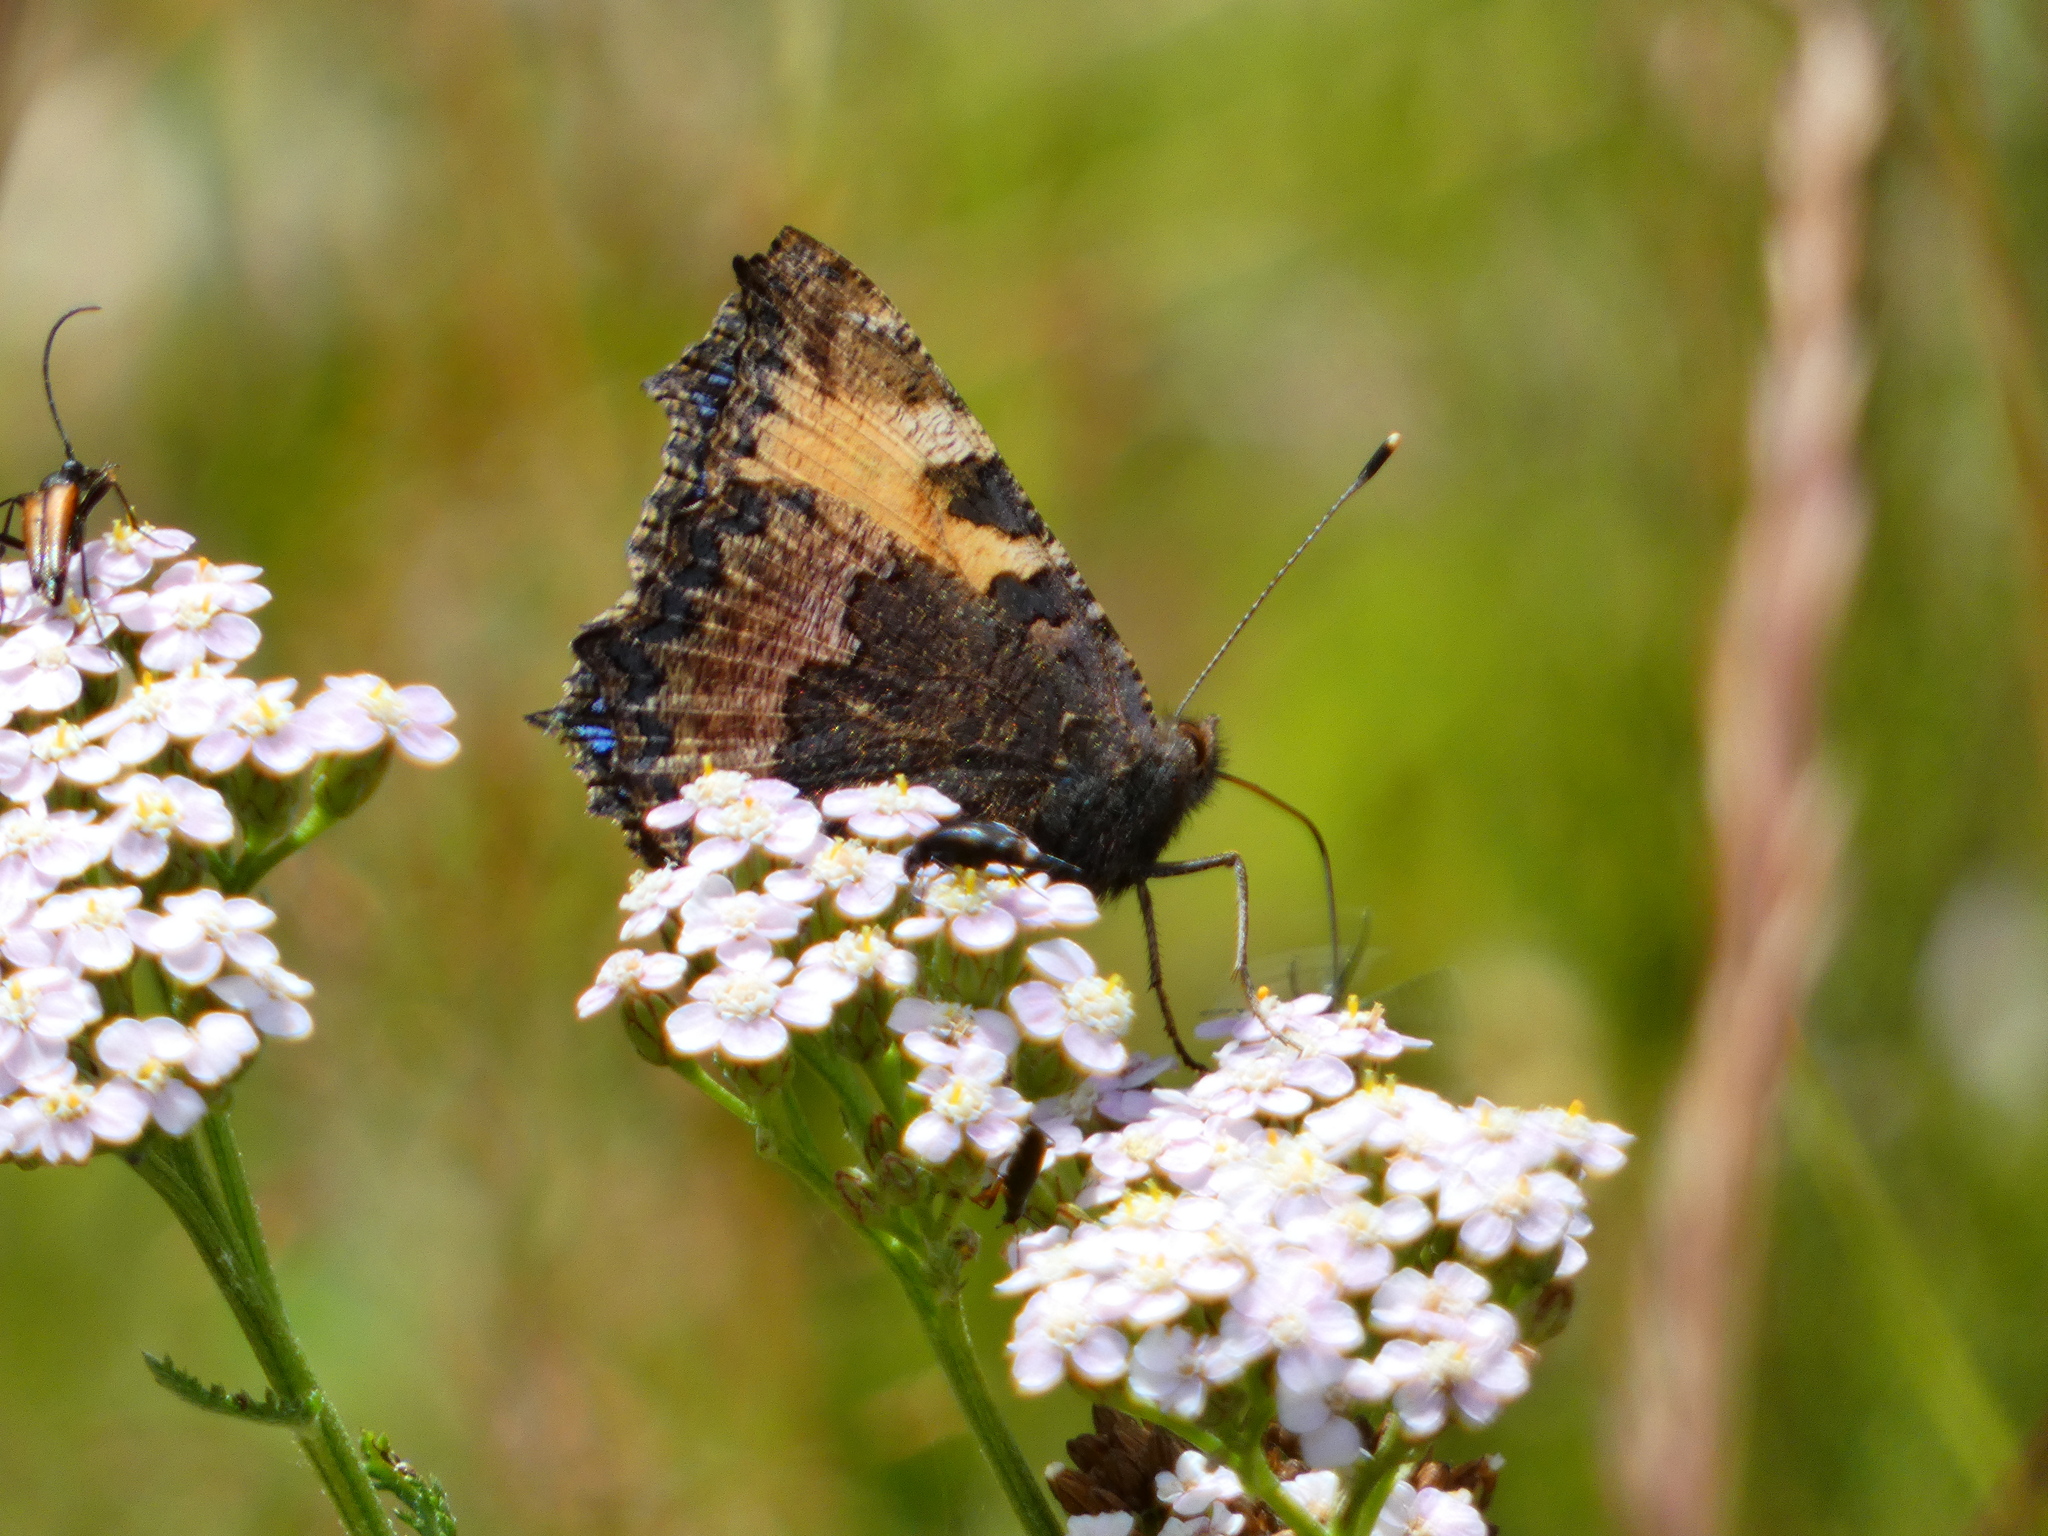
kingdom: Animalia
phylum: Arthropoda
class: Insecta
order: Lepidoptera
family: Nymphalidae
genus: Aglais
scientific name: Aglais urticae
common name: Small tortoiseshell
